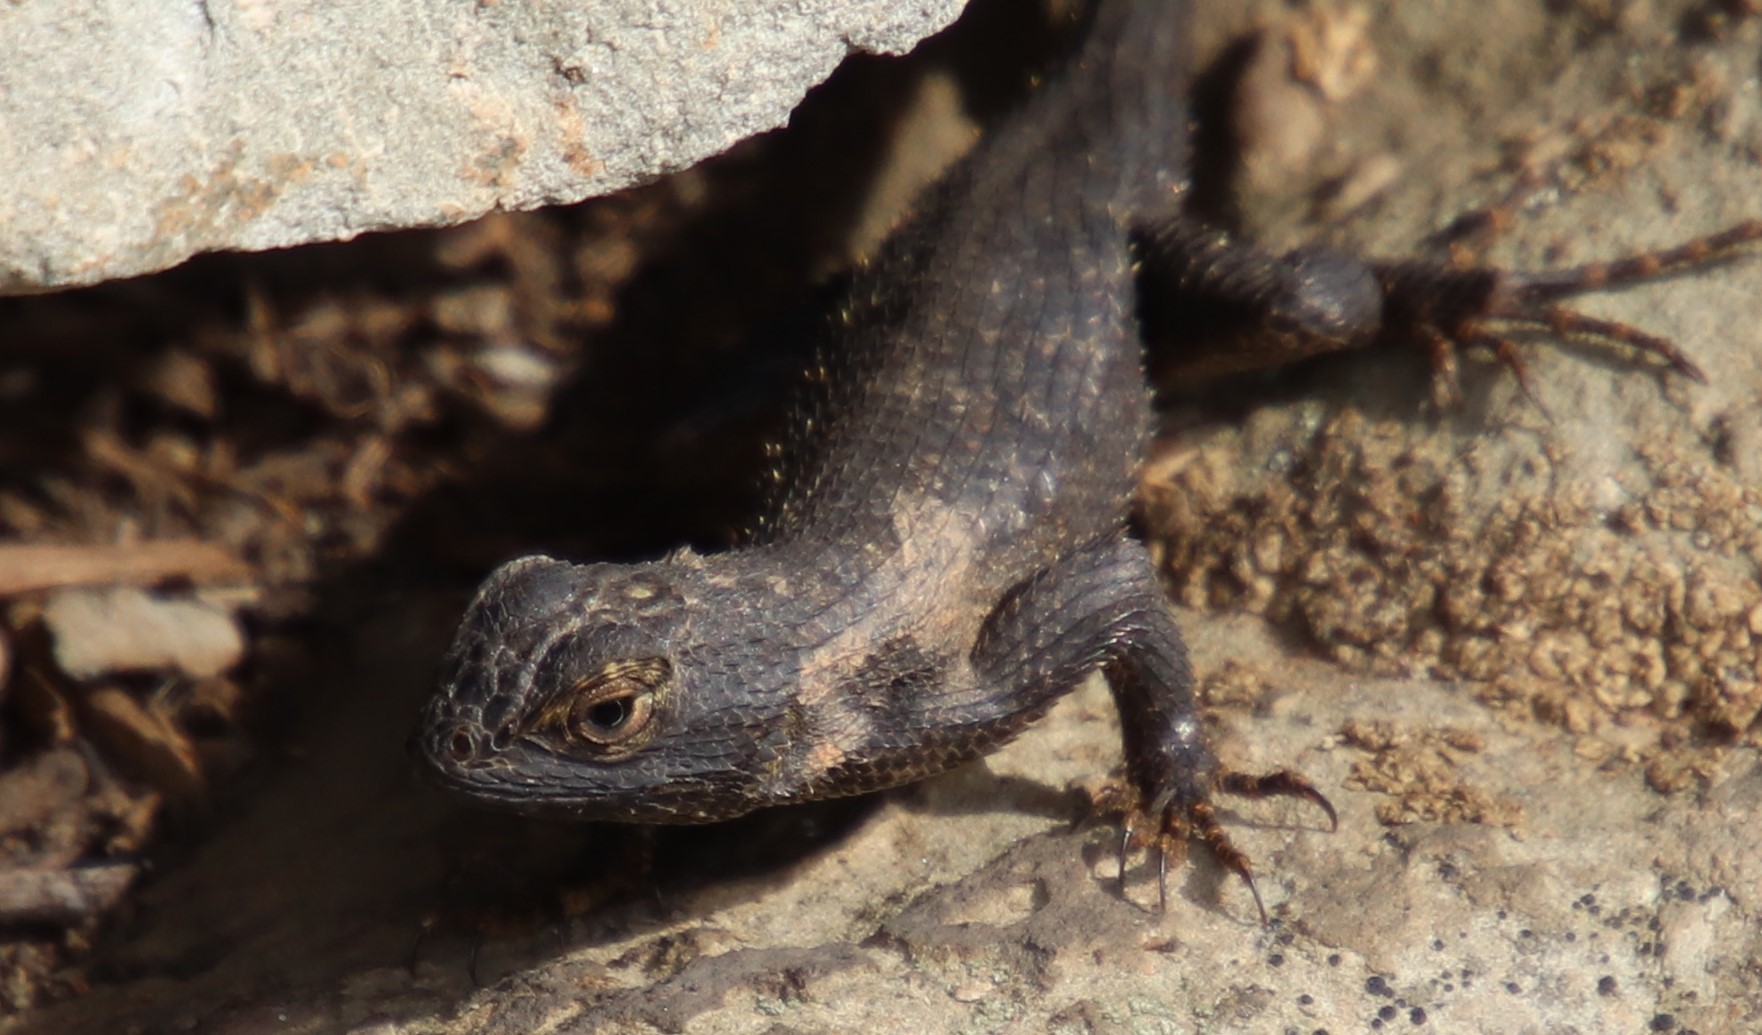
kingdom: Animalia
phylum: Chordata
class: Squamata
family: Phrynosomatidae
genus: Sceloporus
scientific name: Sceloporus occidentalis
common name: Western fence lizard
